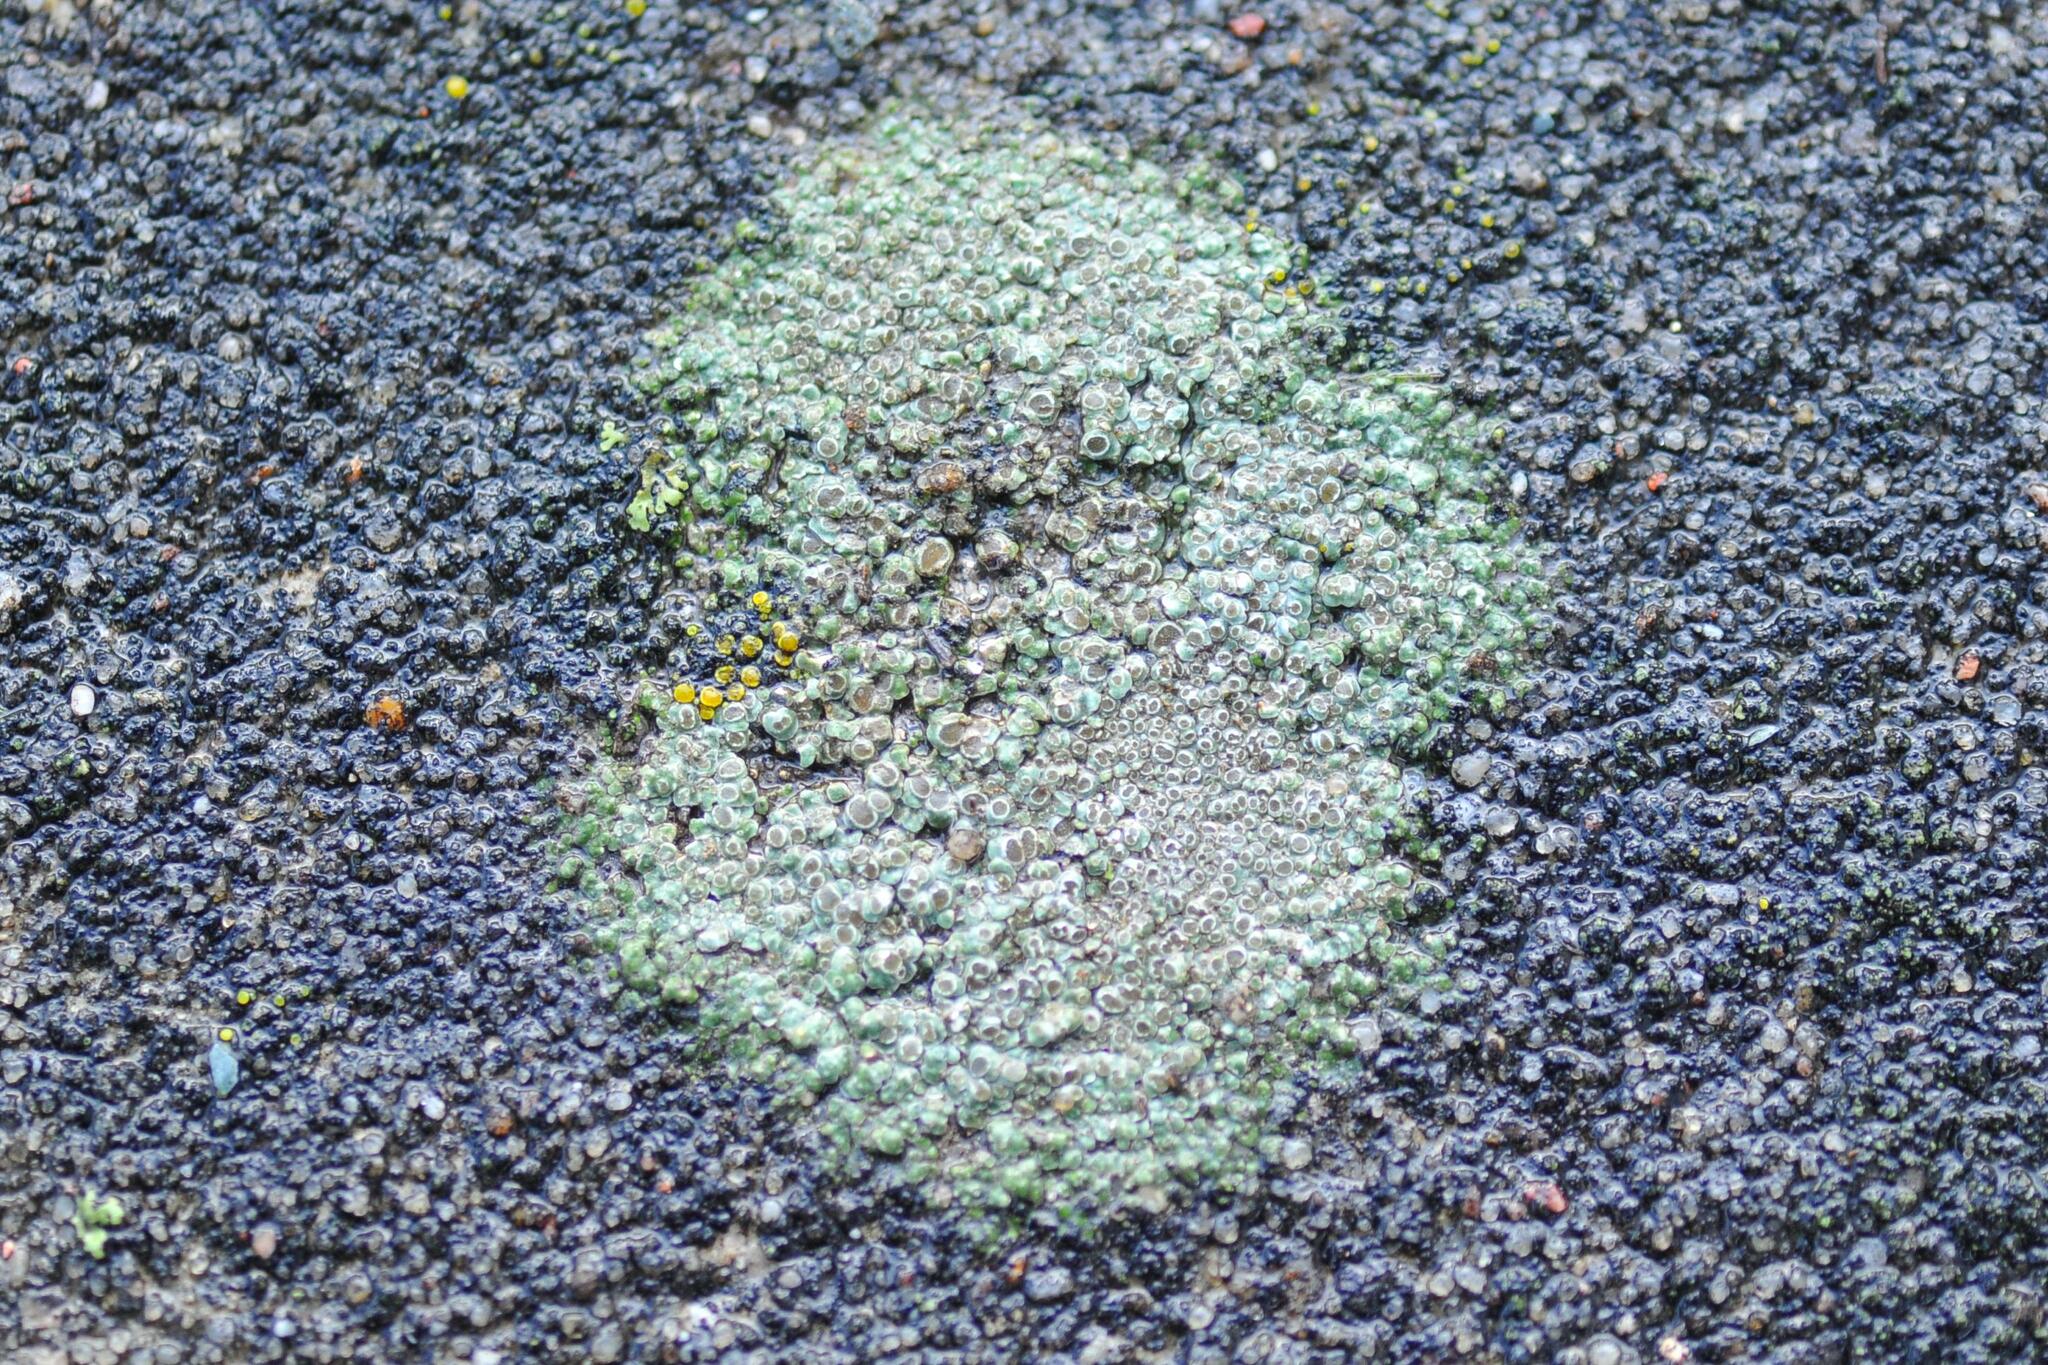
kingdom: Fungi
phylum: Ascomycota
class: Lecanoromycetes
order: Pertusariales
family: Megasporaceae
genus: Circinaria
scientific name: Circinaria contorta
